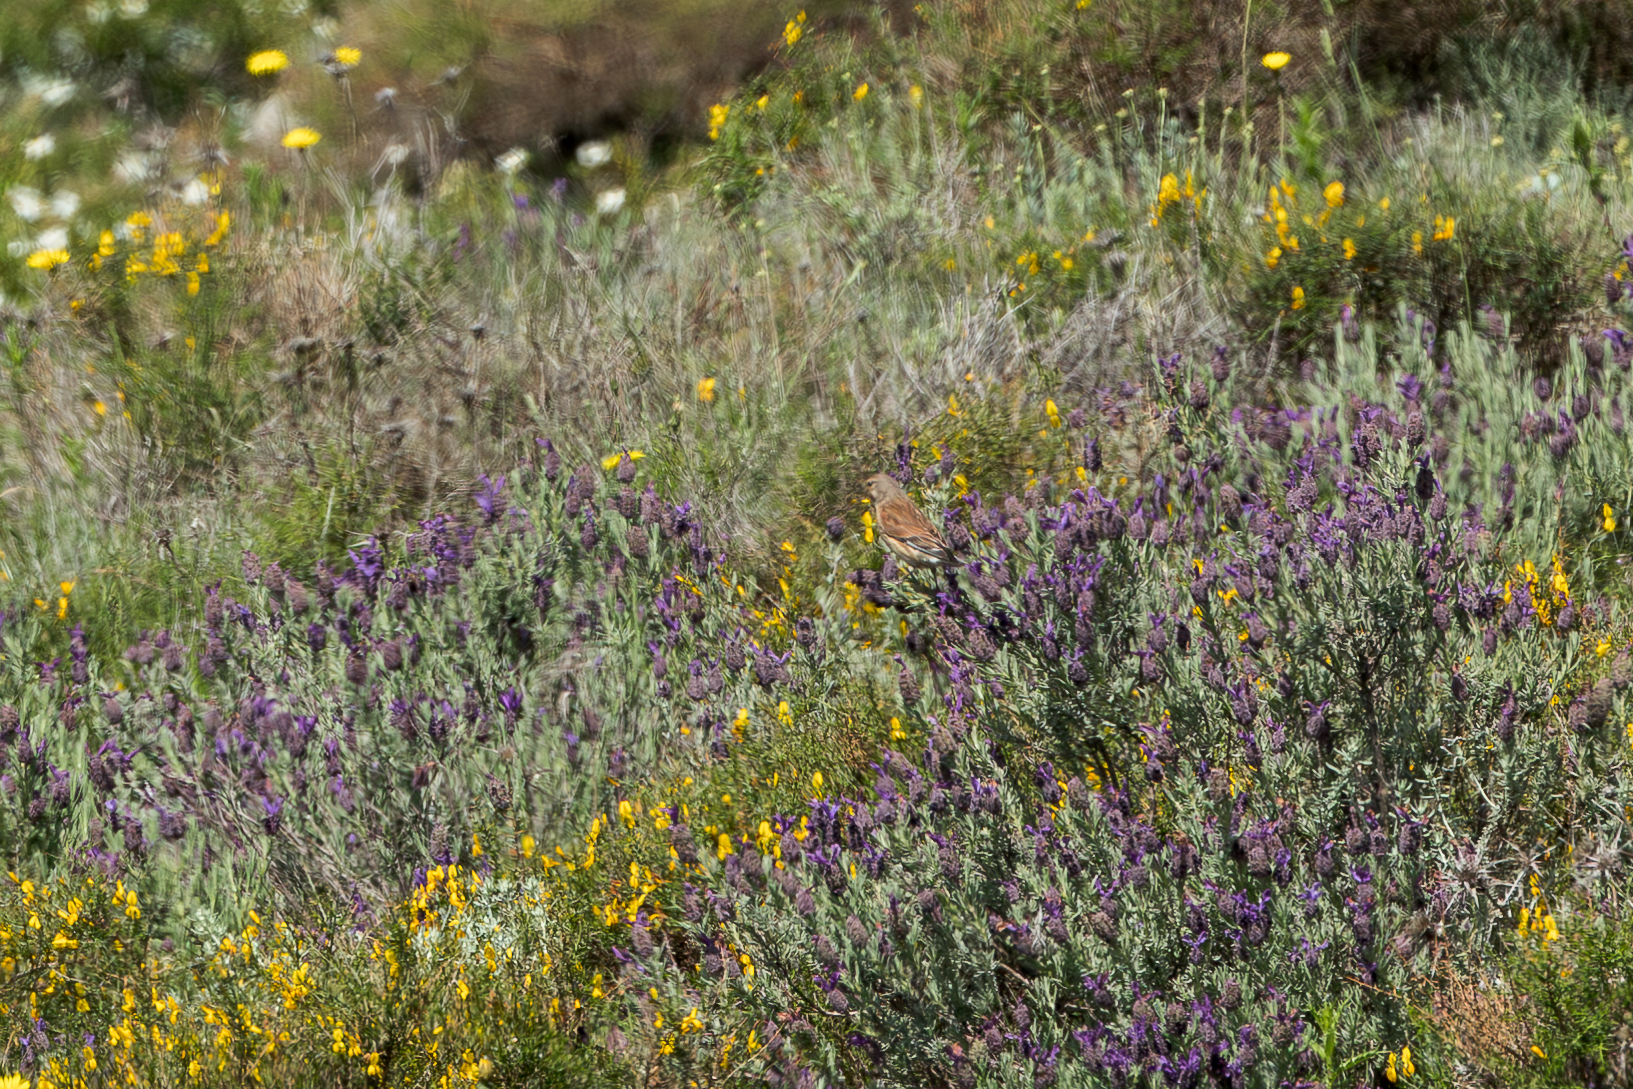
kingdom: Animalia
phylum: Chordata
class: Aves
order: Passeriformes
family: Fringillidae
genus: Linaria
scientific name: Linaria cannabina
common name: Common linnet
